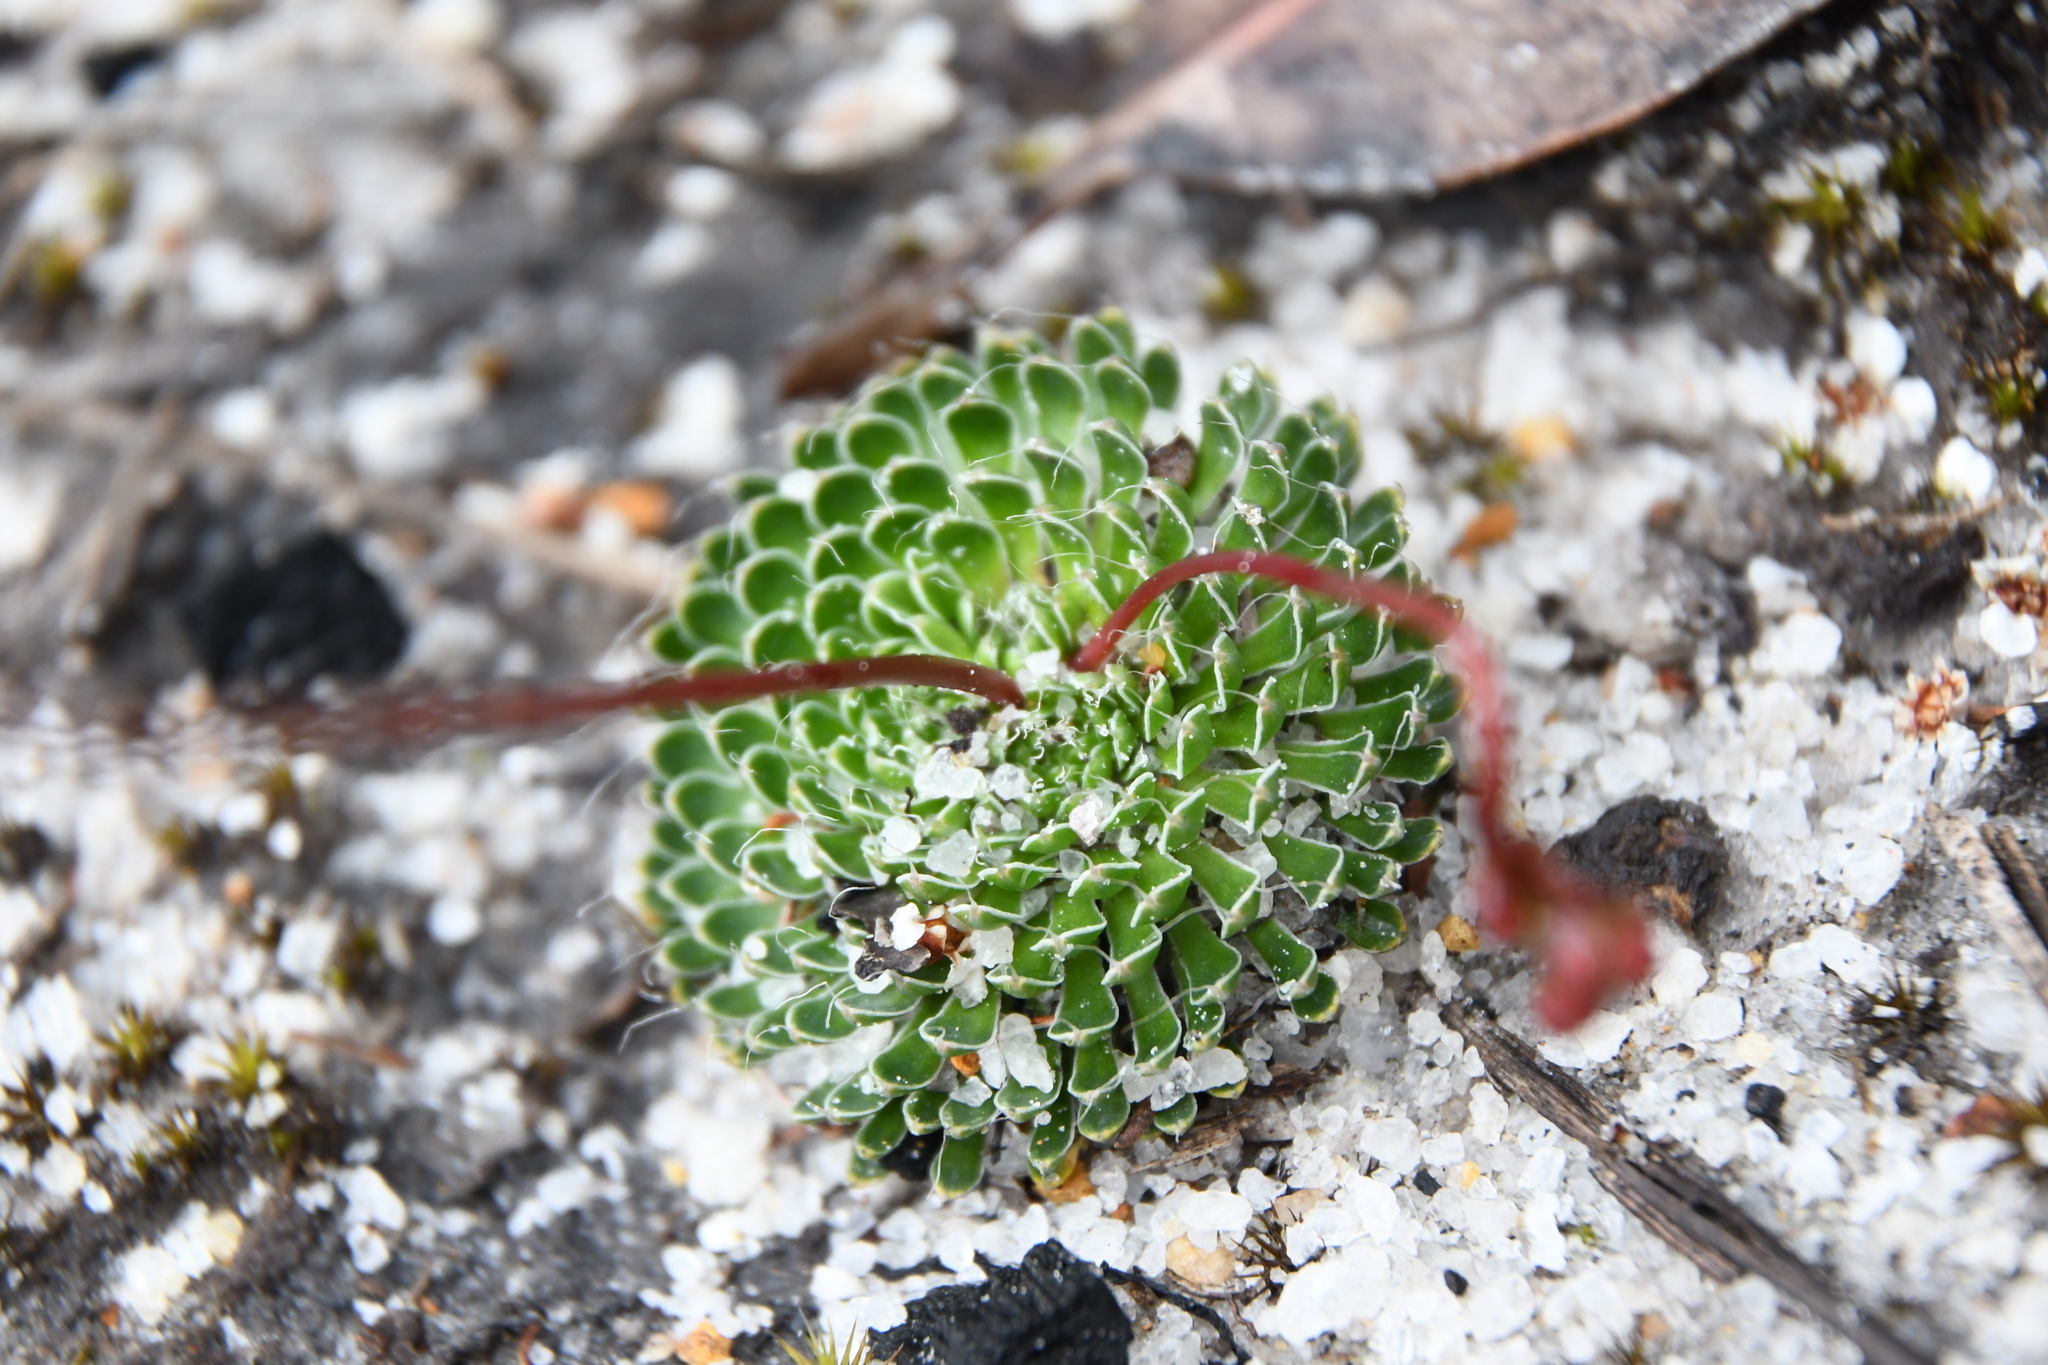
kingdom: Plantae
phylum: Tracheophyta
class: Magnoliopsida
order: Asterales
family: Stylidiaceae
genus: Stylidium
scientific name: Stylidium piliferum
